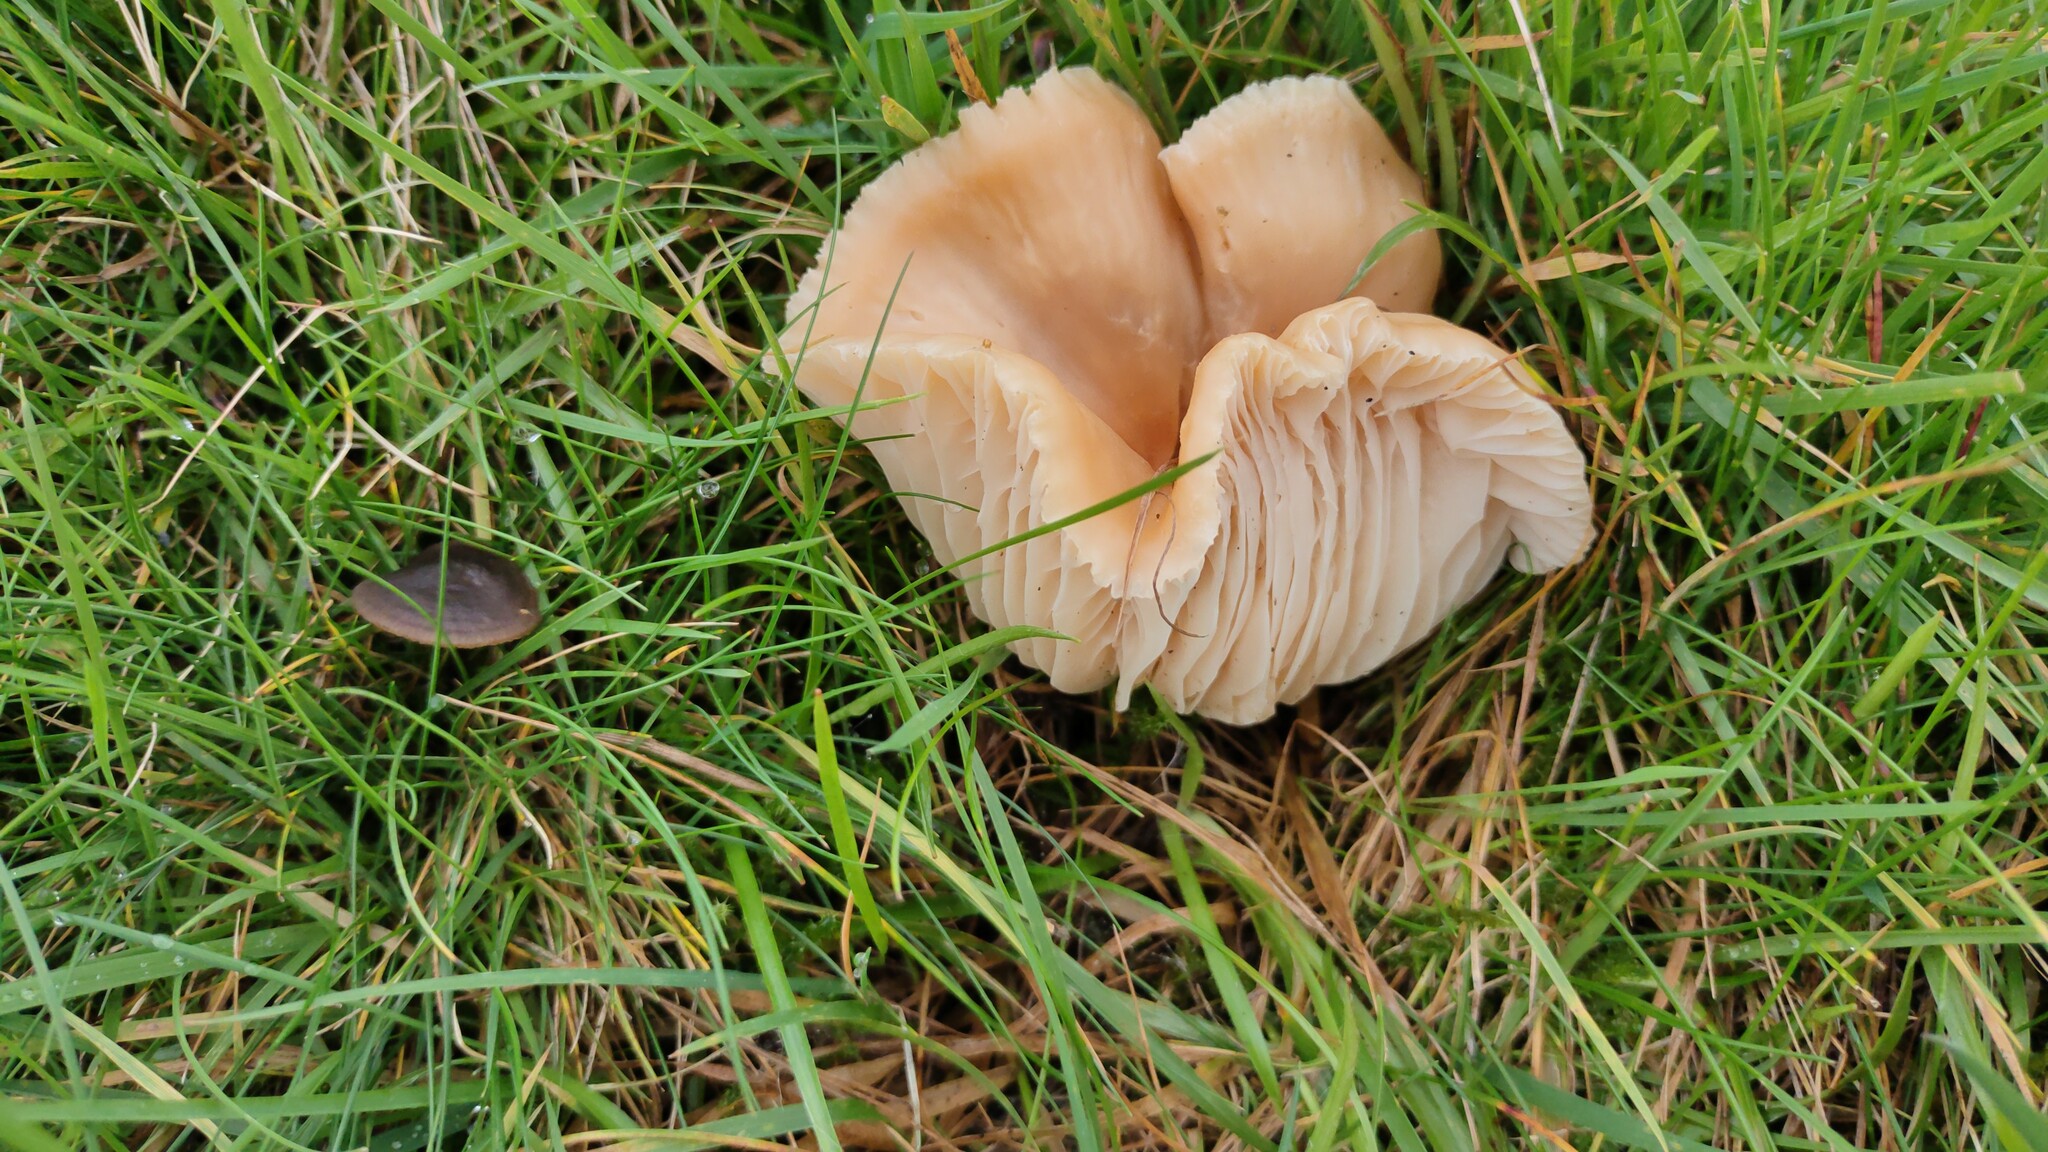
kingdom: Fungi
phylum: Basidiomycota
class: Agaricomycetes
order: Agaricales
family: Hygrophoraceae
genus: Cuphophyllus
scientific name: Cuphophyllus pratensis
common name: Meadow waxcap
